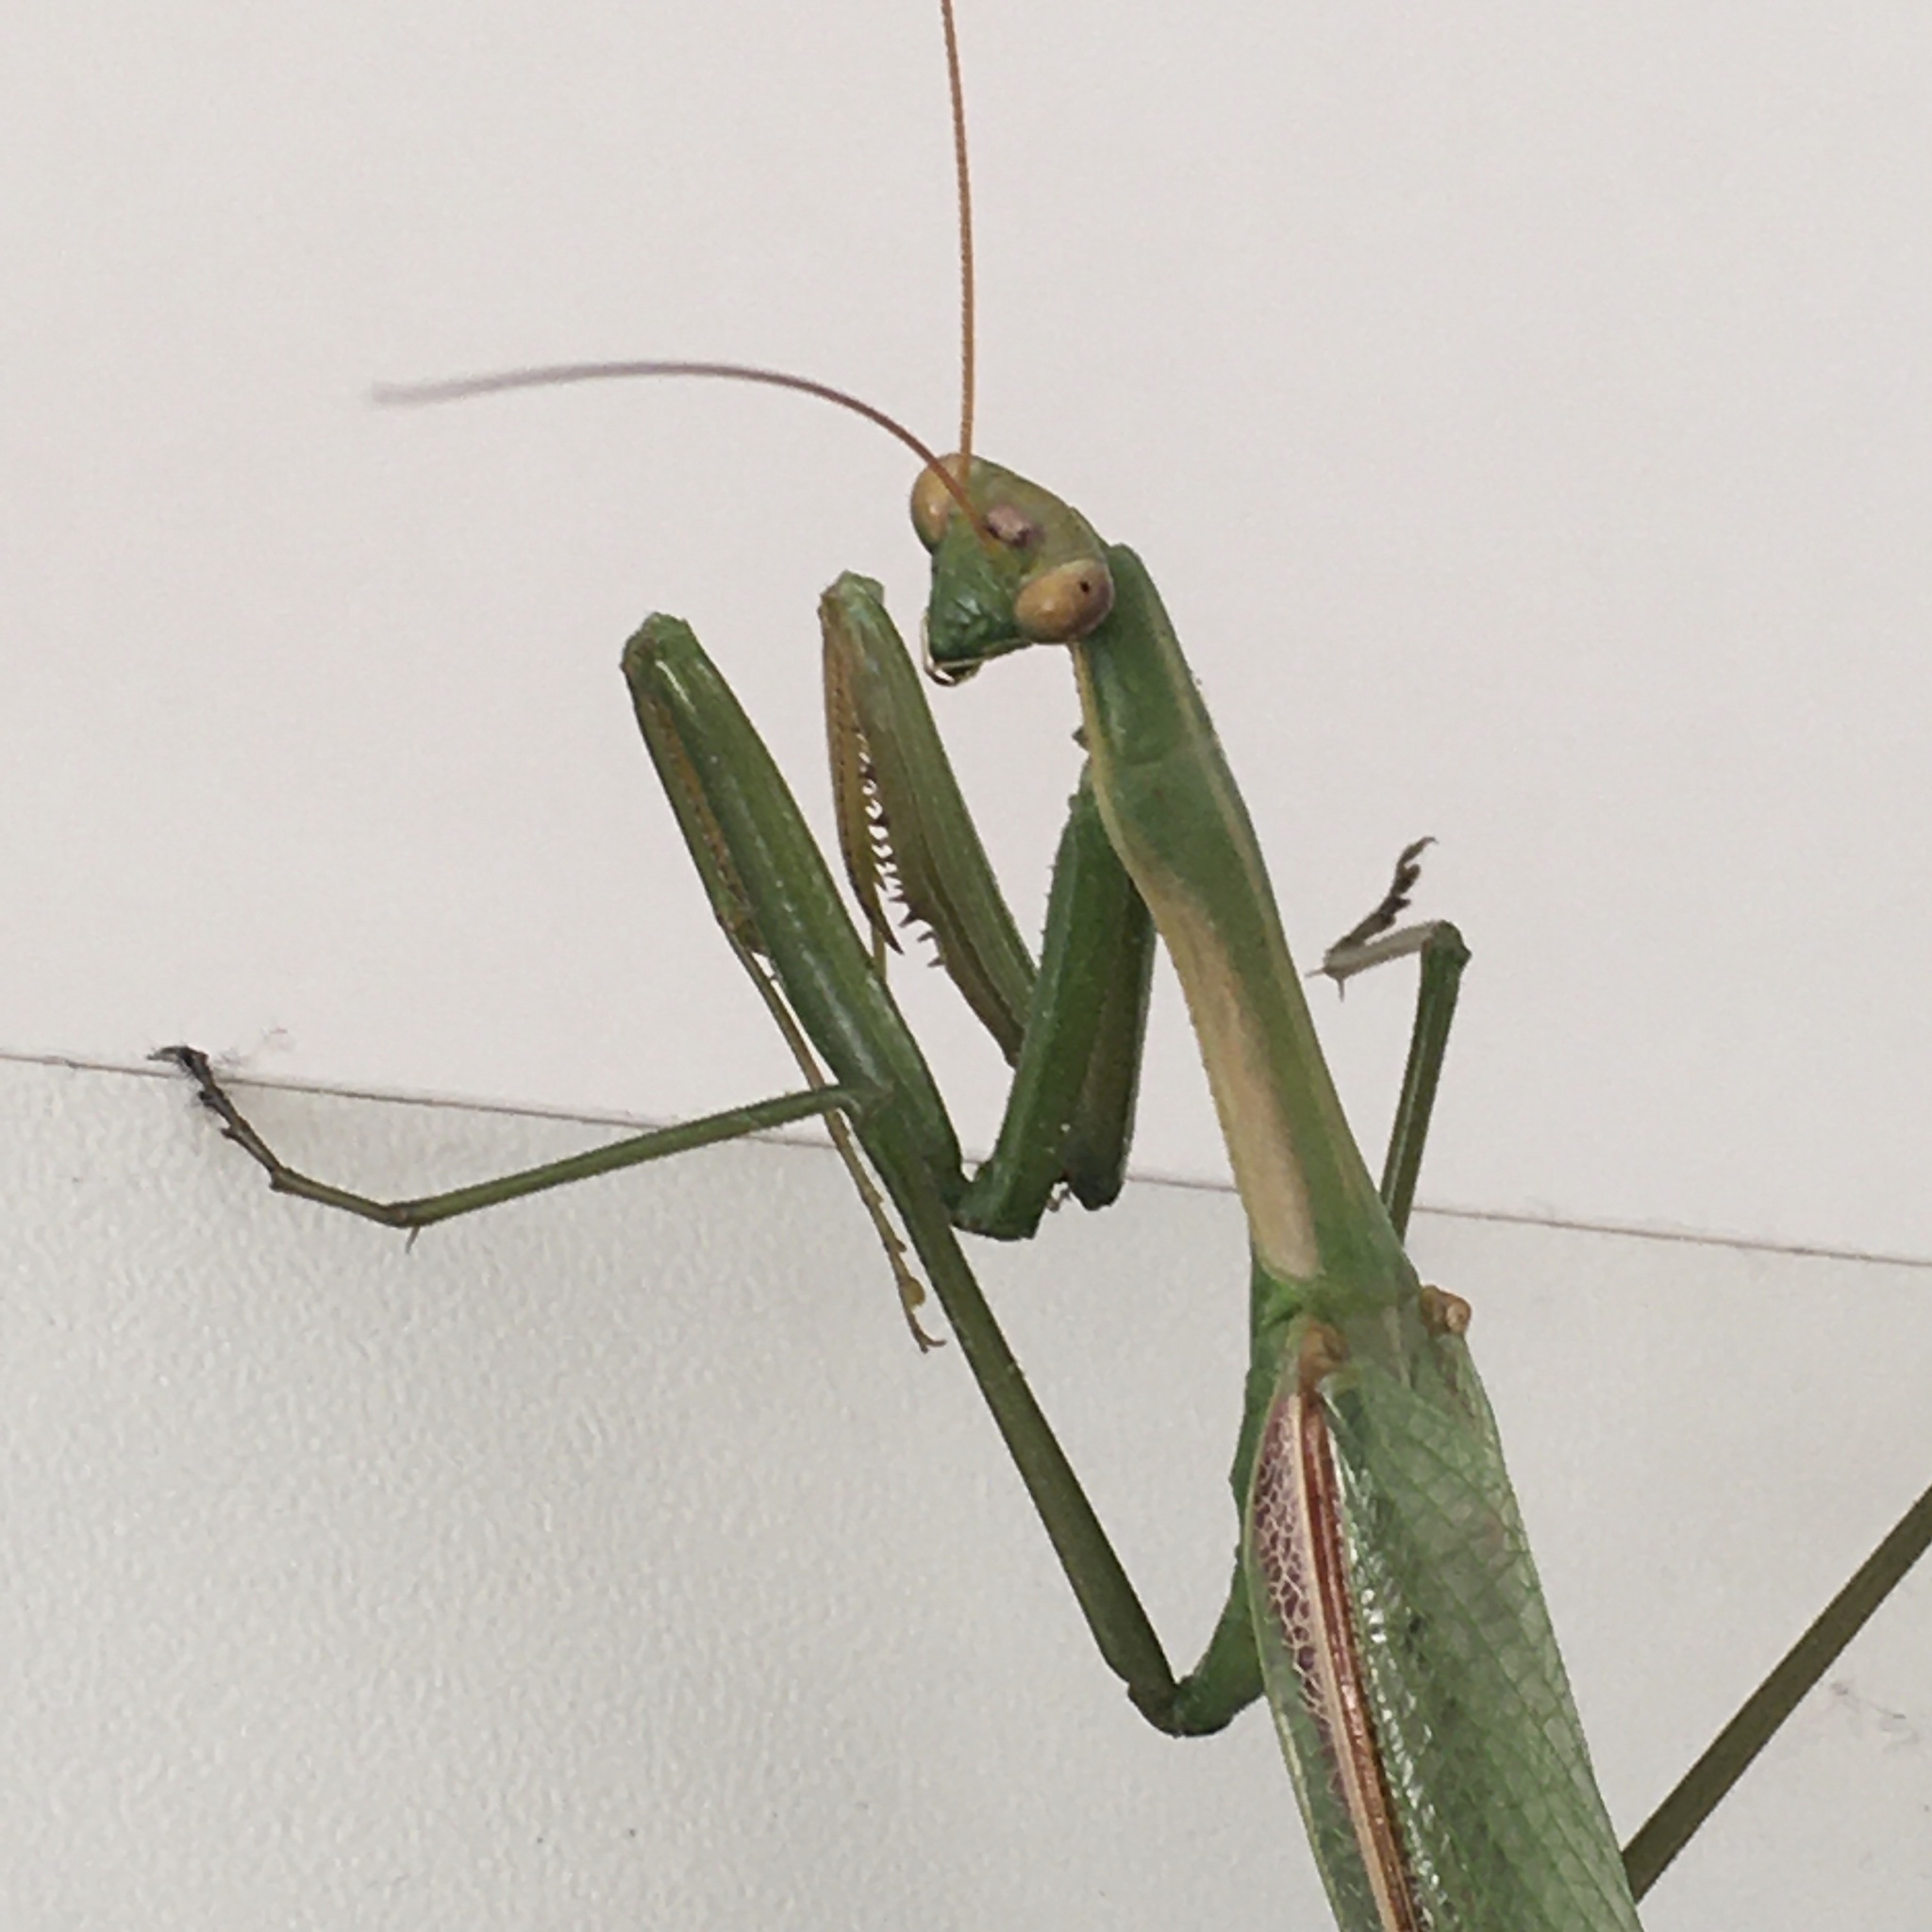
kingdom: Animalia
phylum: Arthropoda
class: Insecta
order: Mantodea
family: Coptopterygidae
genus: Coptopteryx
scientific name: Coptopteryx argentina
